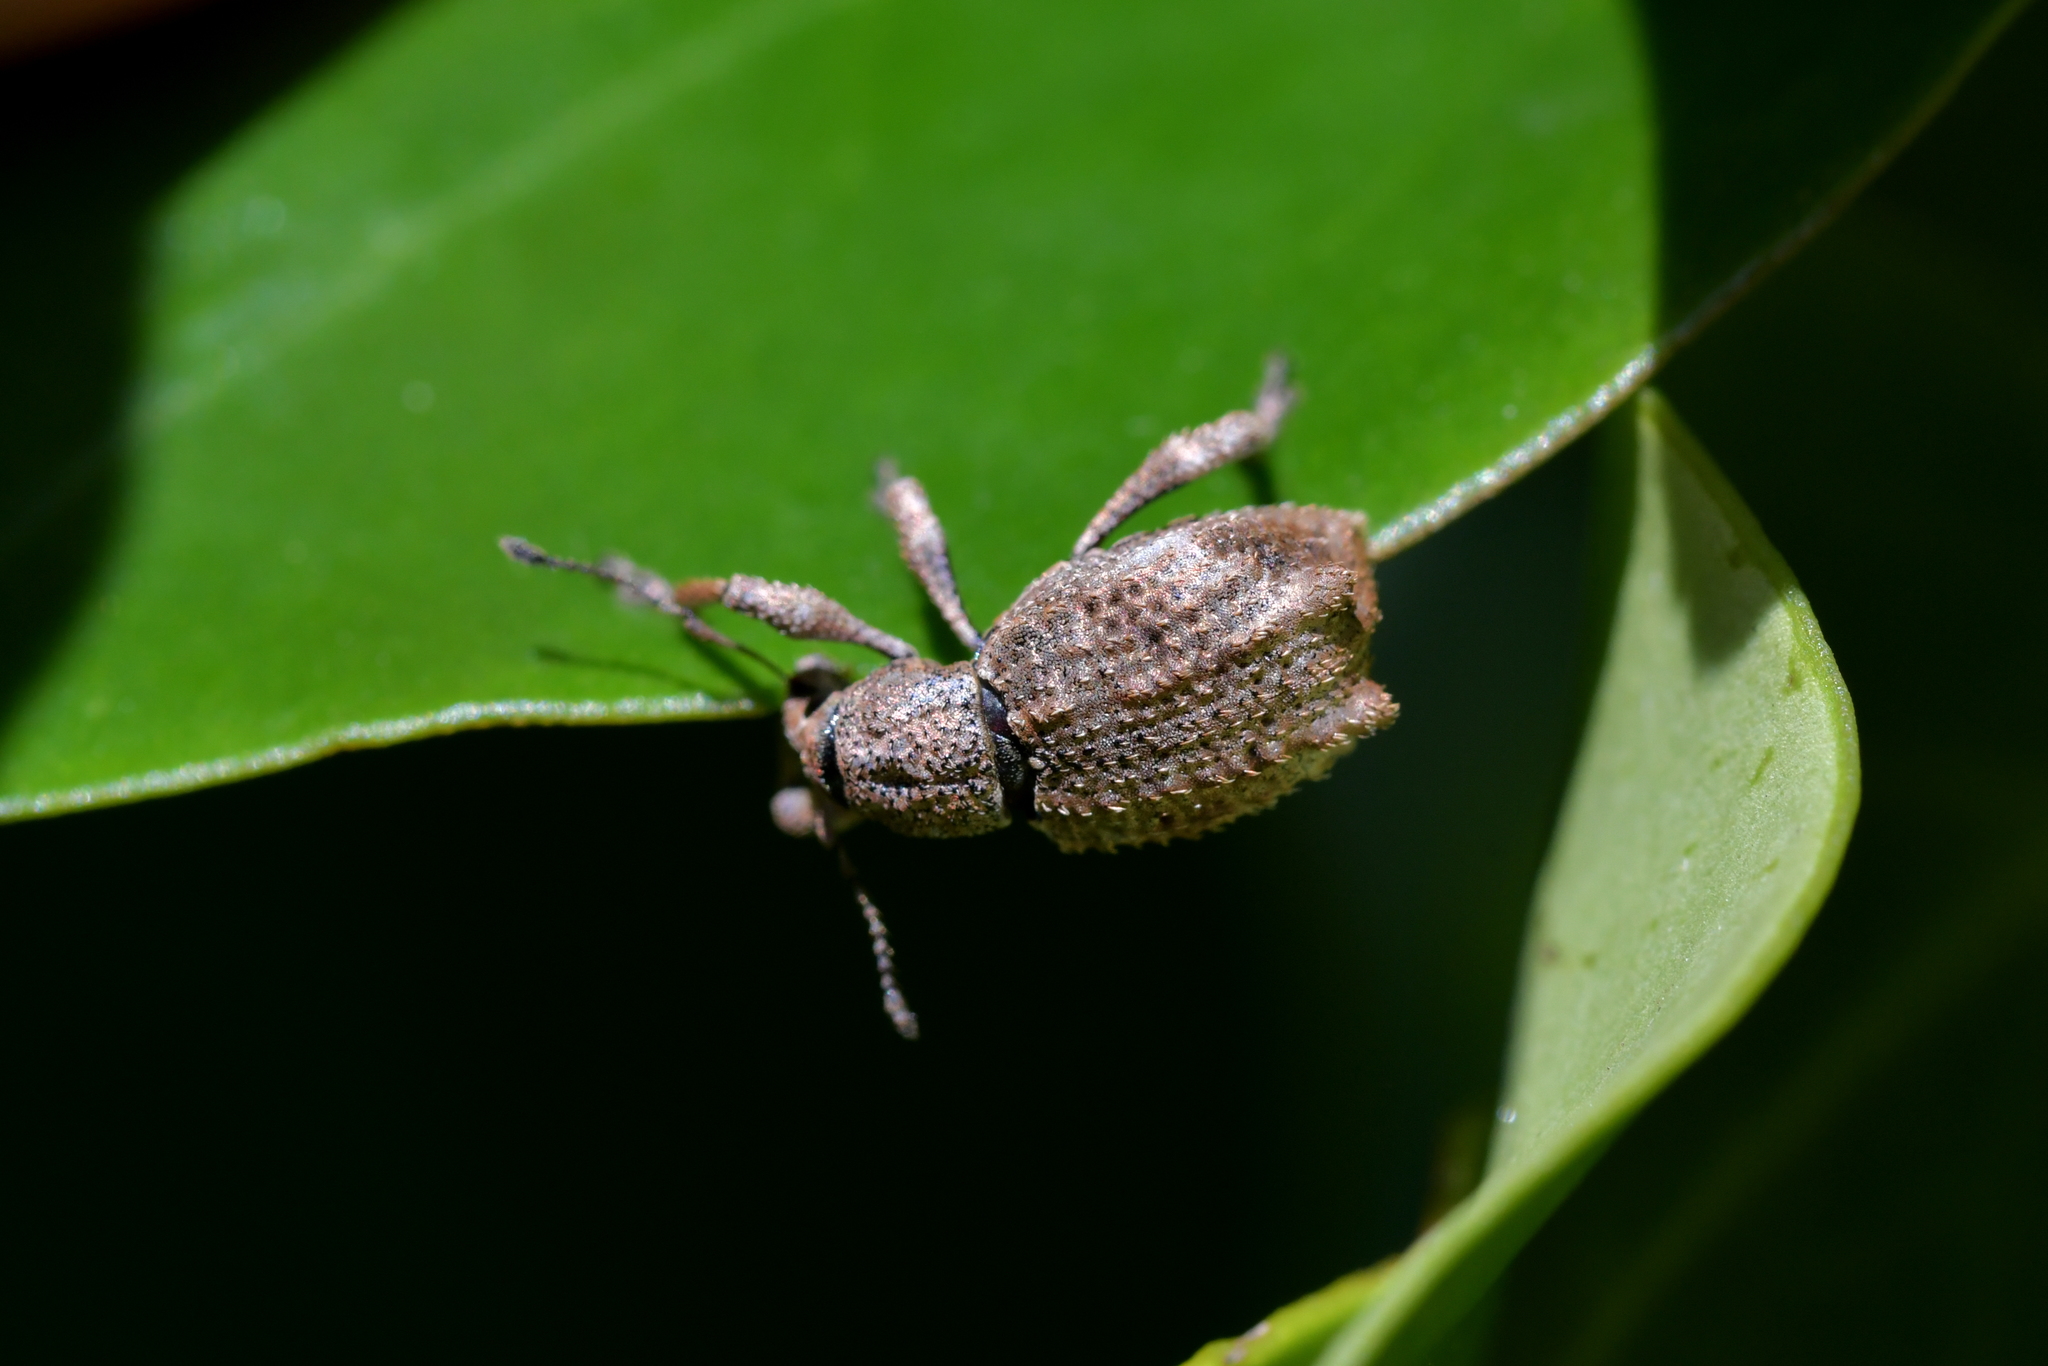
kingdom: Animalia
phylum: Arthropoda
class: Insecta
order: Coleoptera
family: Curculionidae
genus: Catoptes
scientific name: Catoptes binodis
